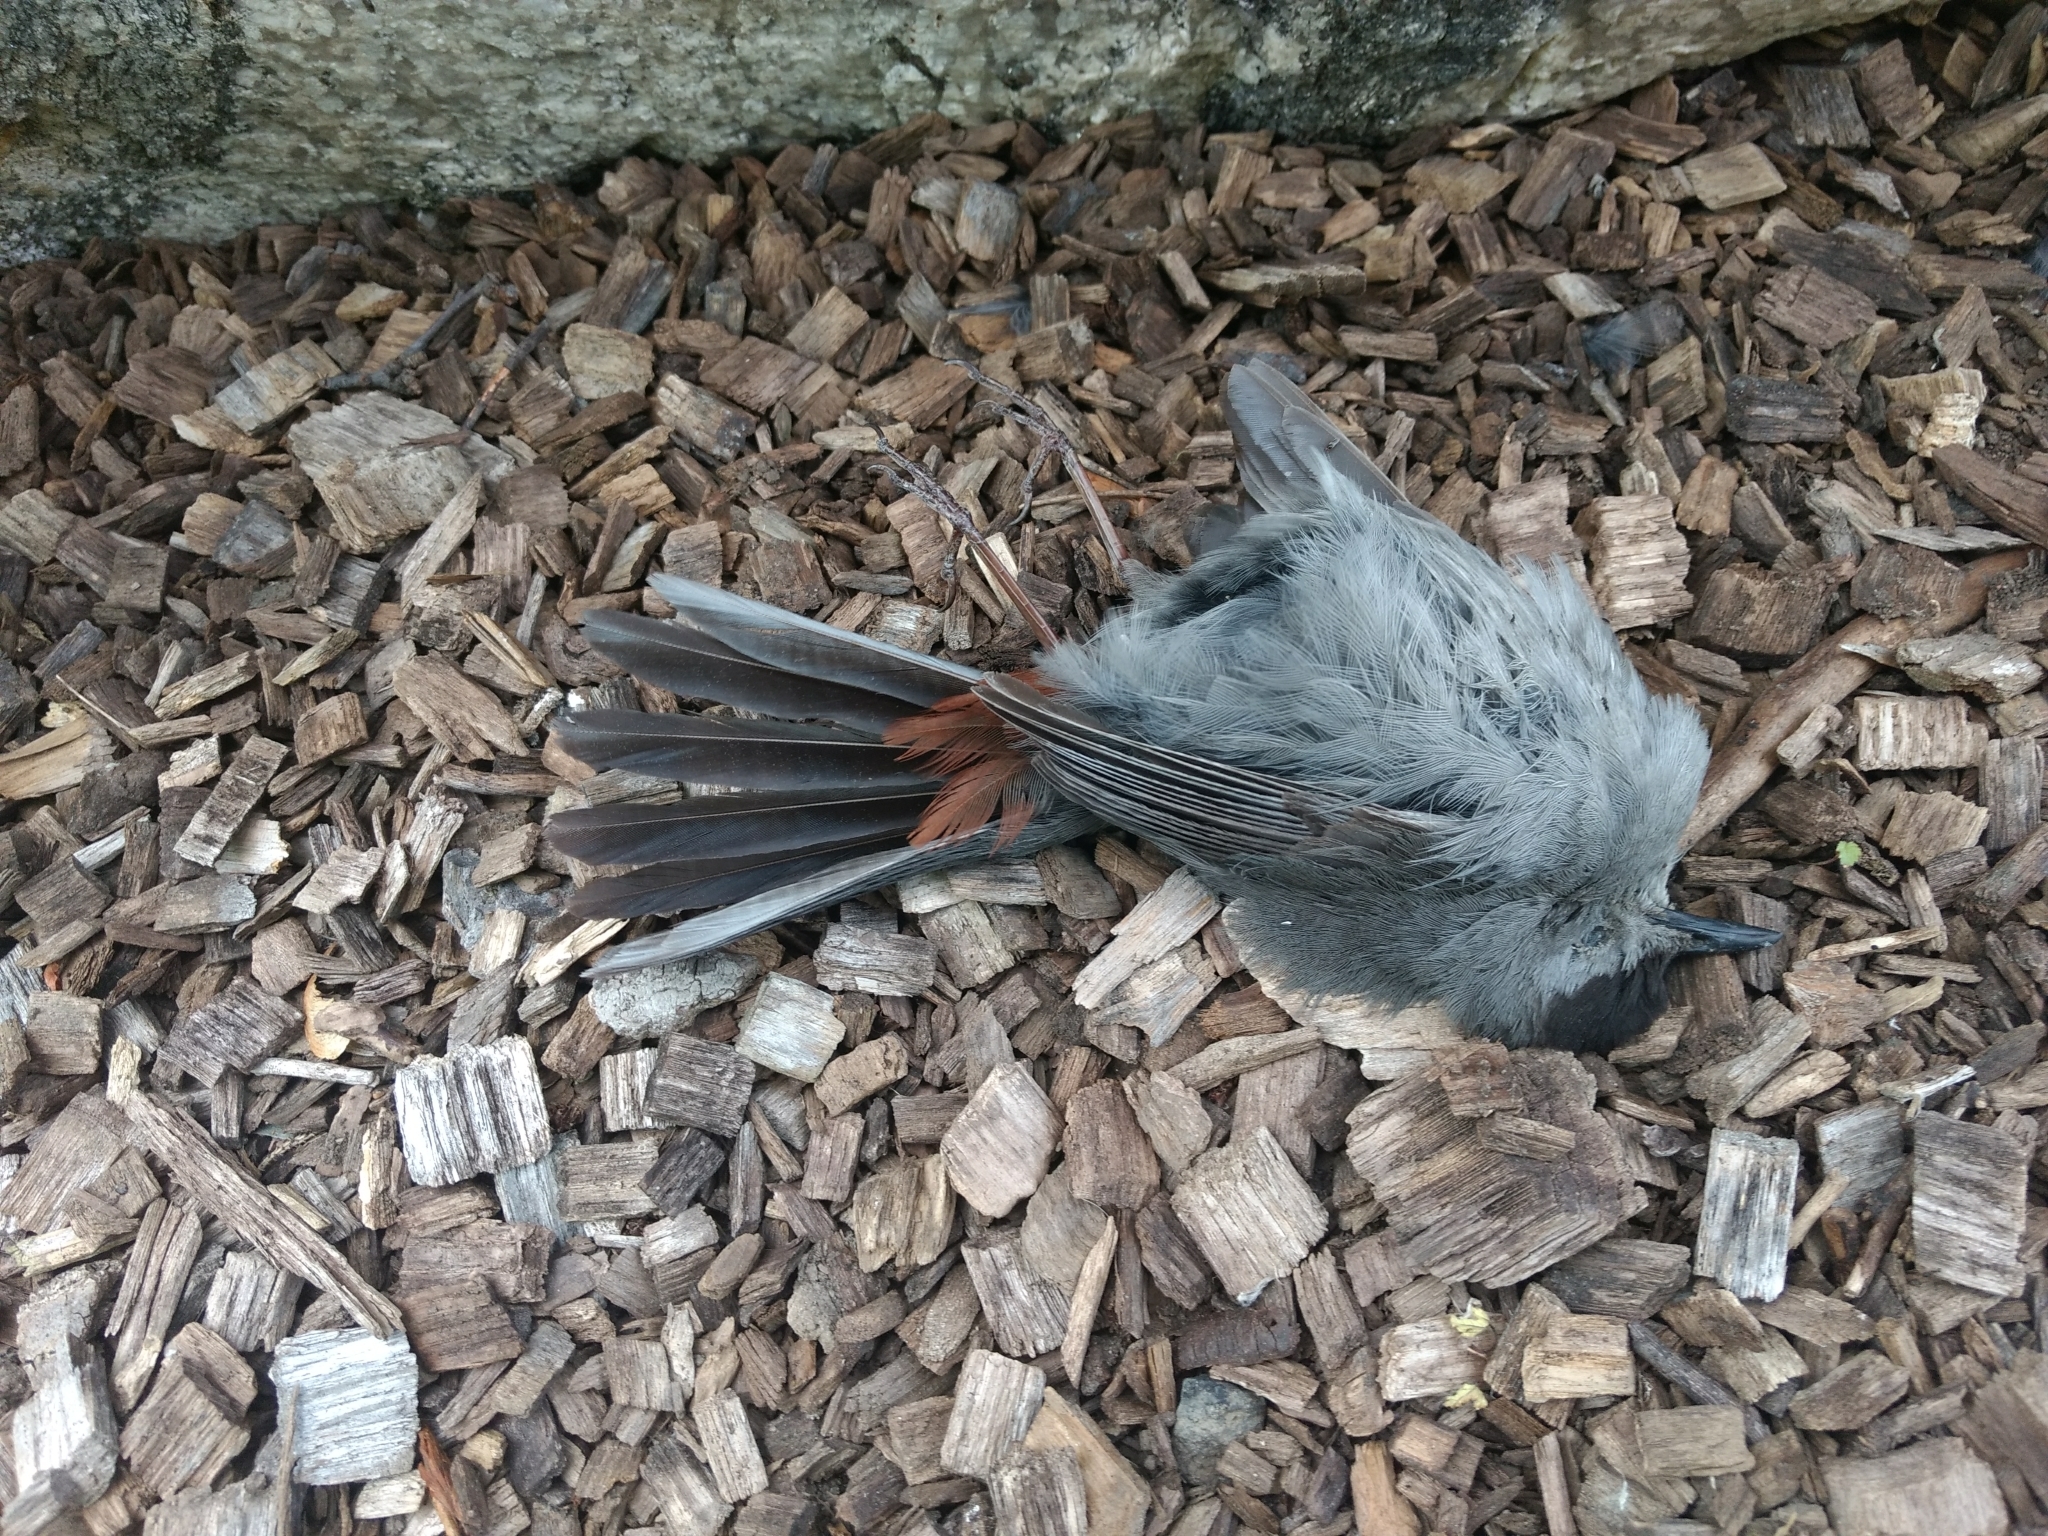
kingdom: Animalia
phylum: Chordata
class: Aves
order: Passeriformes
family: Mimidae
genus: Dumetella
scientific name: Dumetella carolinensis
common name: Gray catbird
